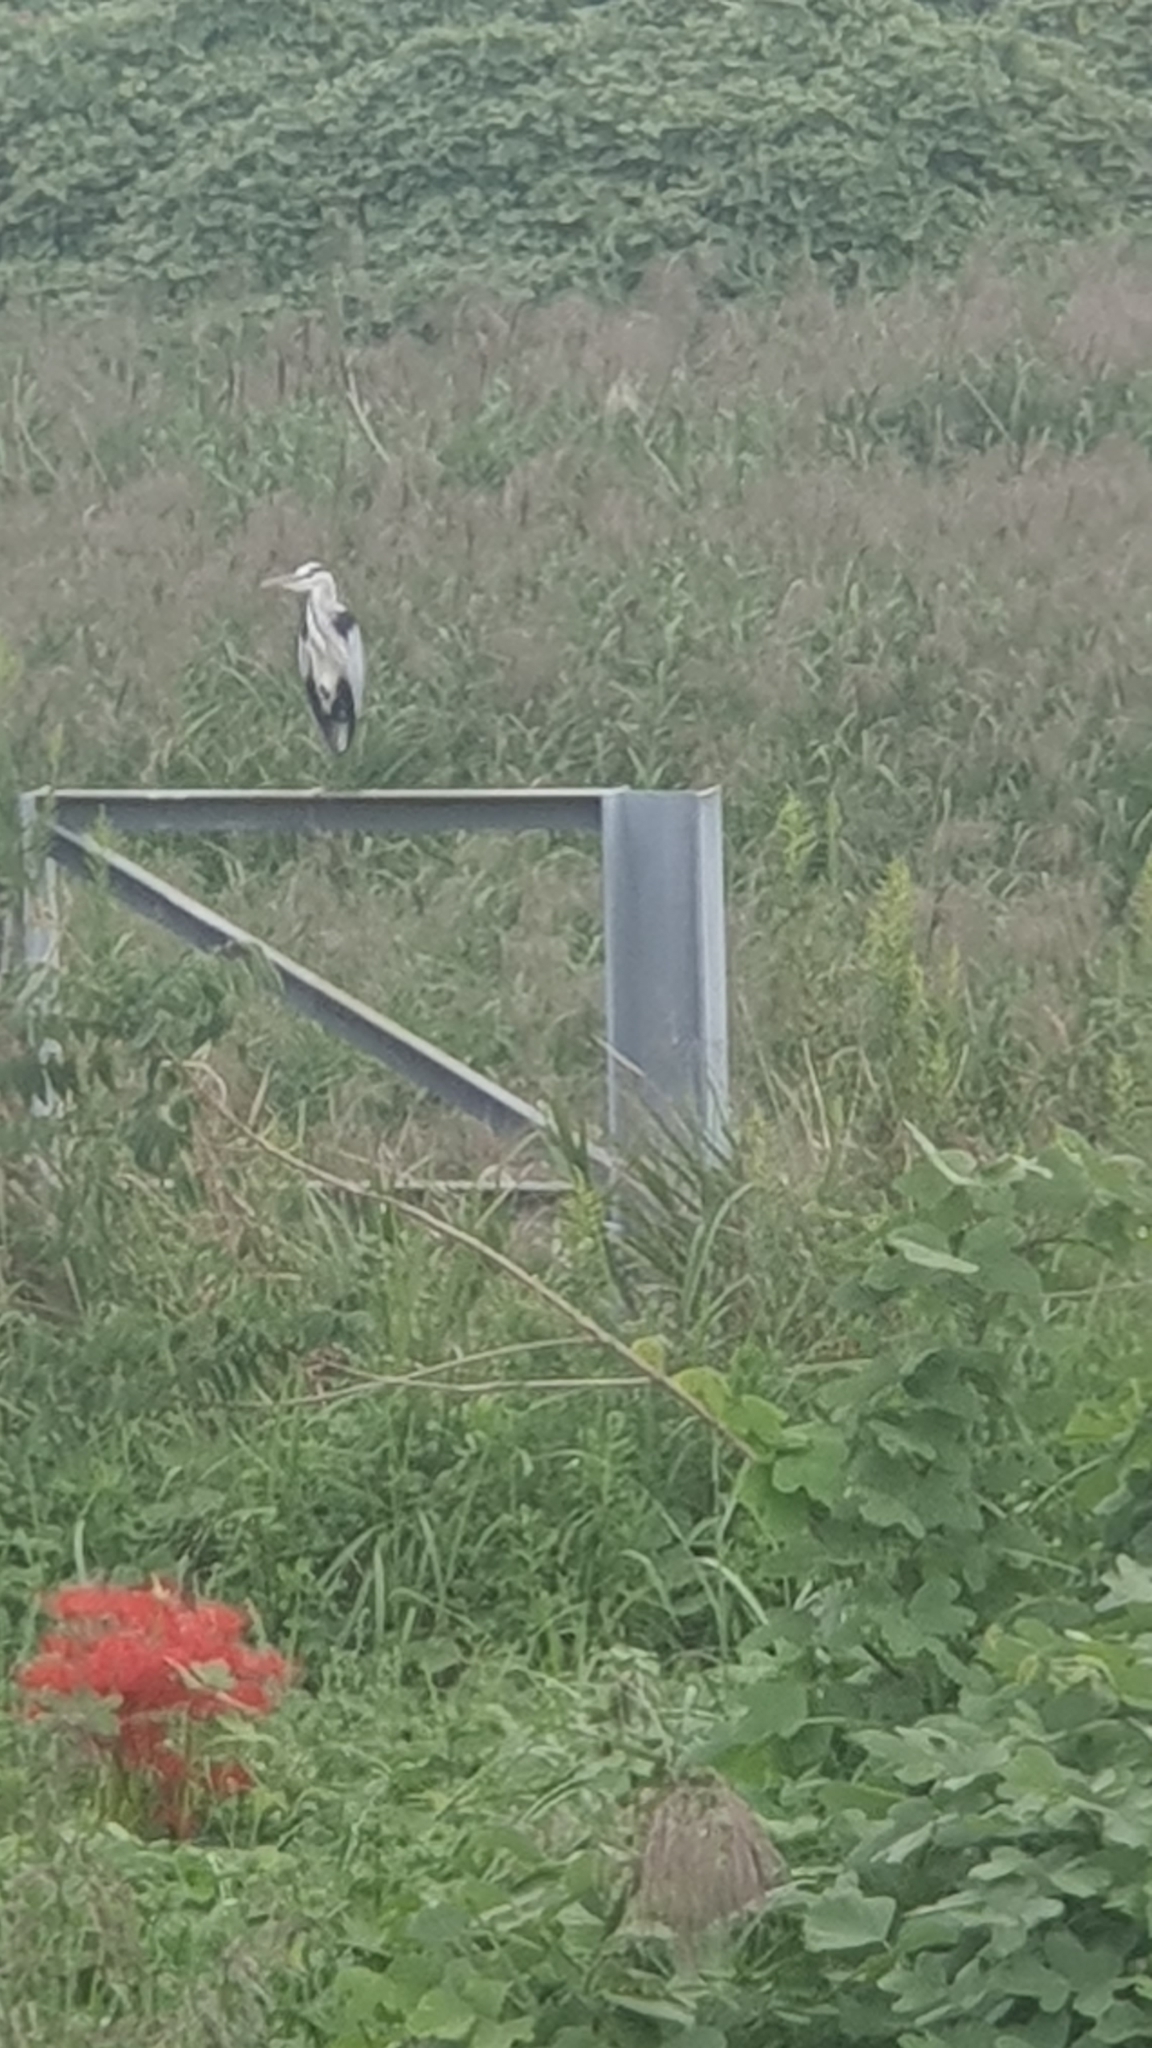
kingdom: Animalia
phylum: Chordata
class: Aves
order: Pelecaniformes
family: Ardeidae
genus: Ardea
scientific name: Ardea cinerea
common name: Grey heron
